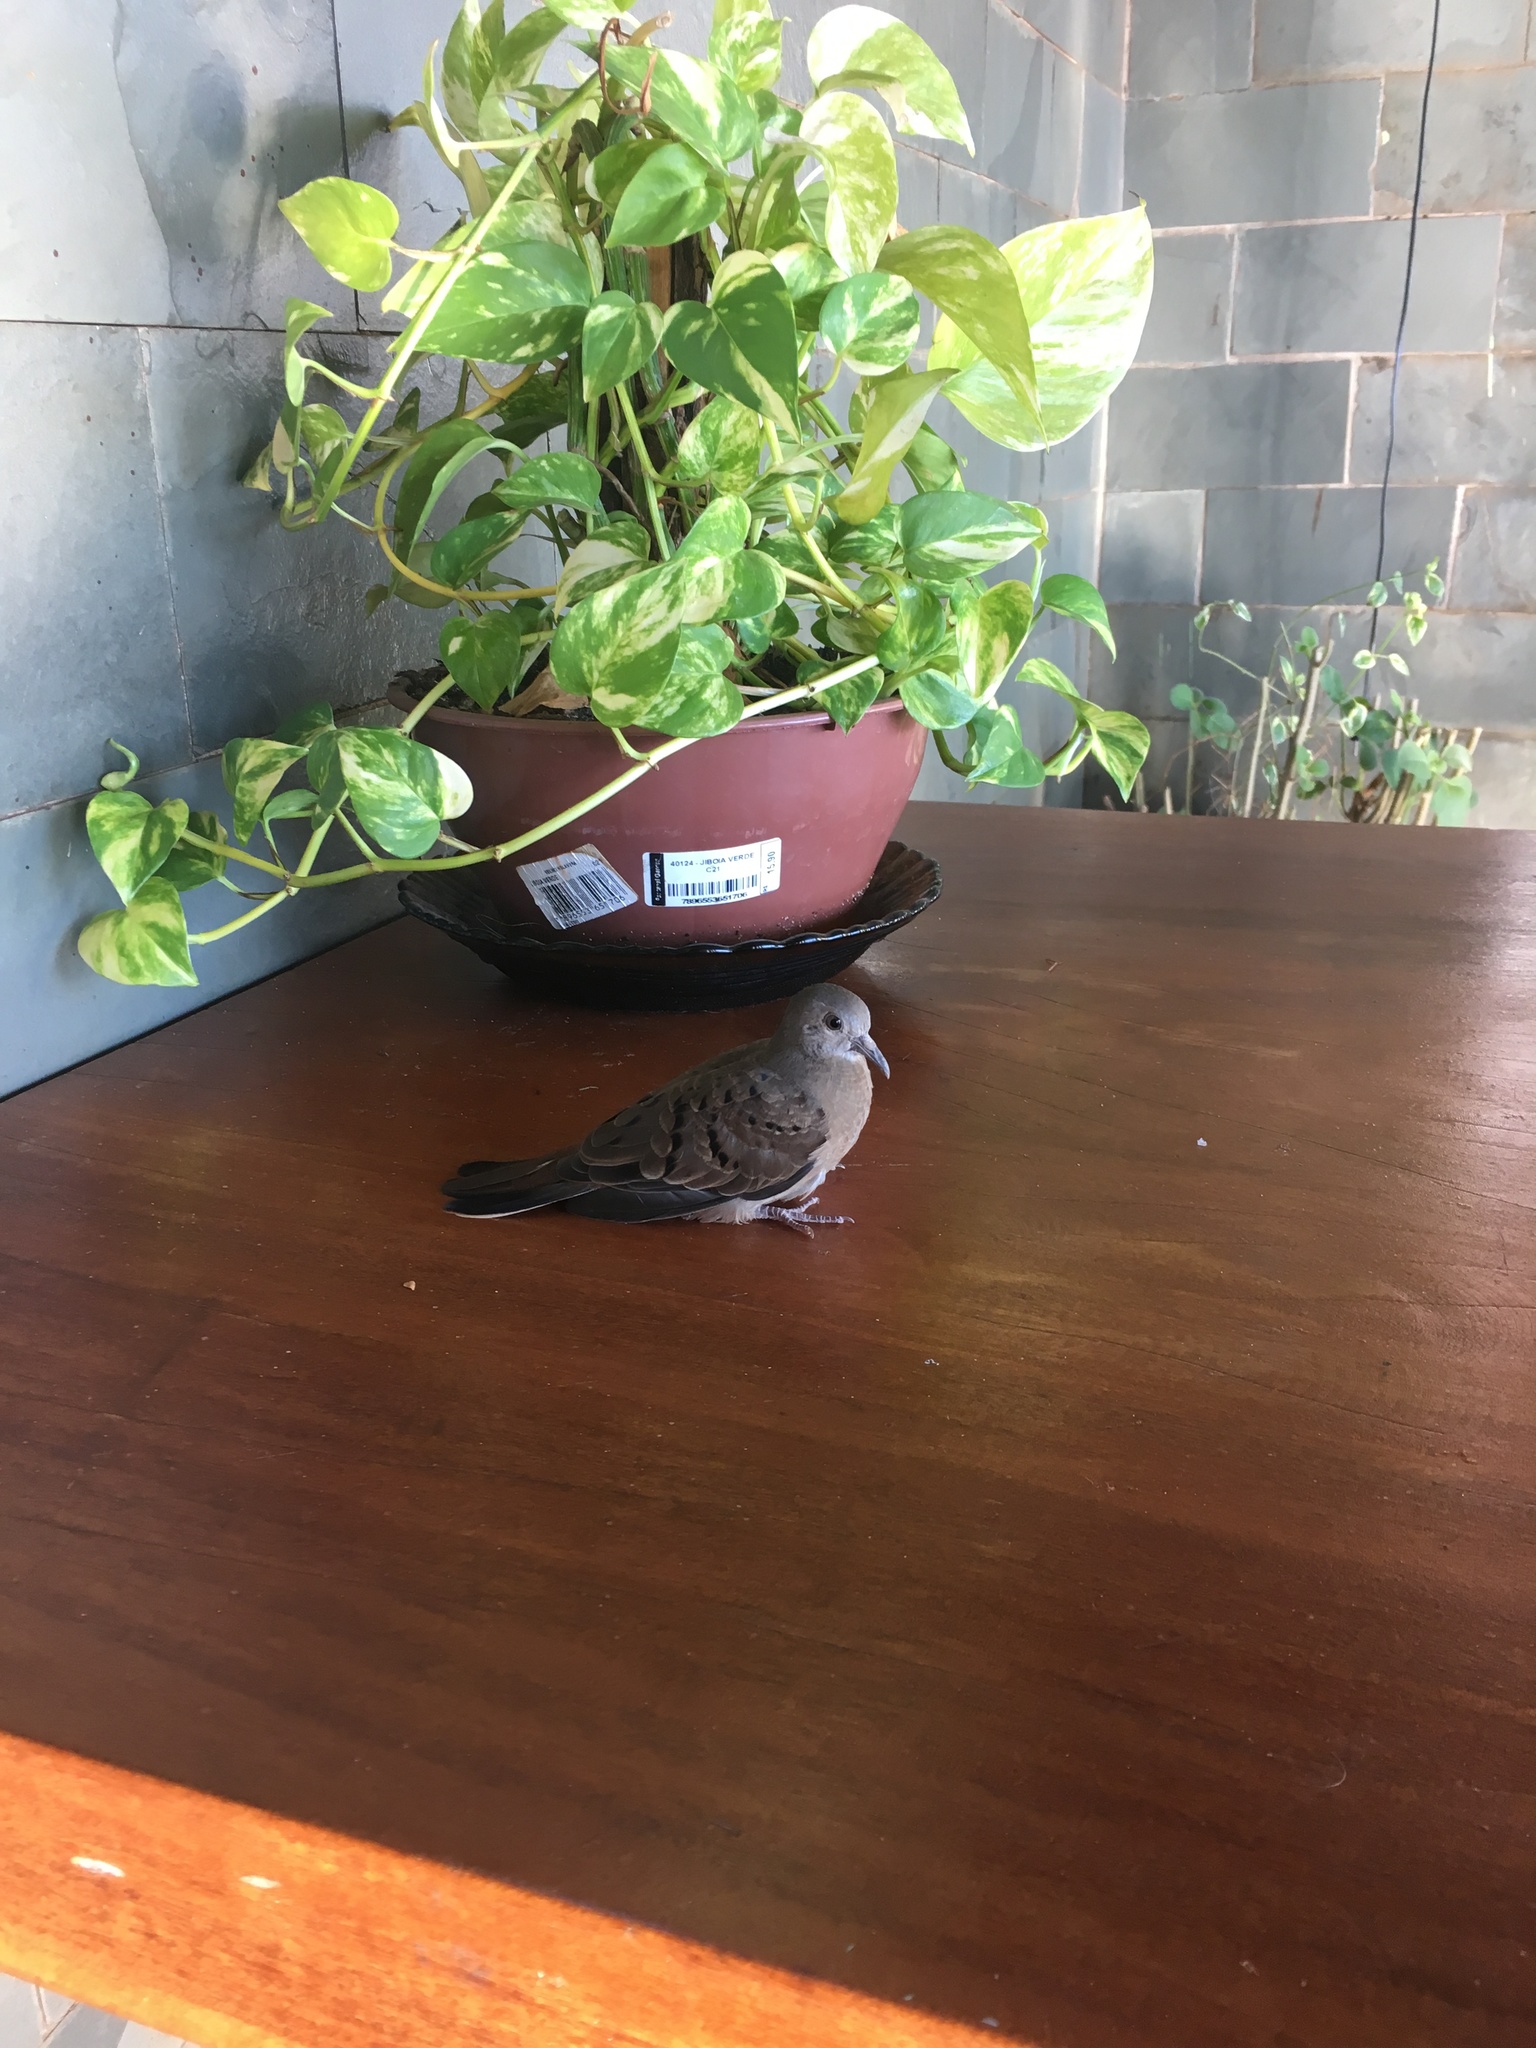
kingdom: Animalia
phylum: Chordata
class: Aves
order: Columbiformes
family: Columbidae
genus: Columbina
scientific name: Columbina talpacoti
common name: Ruddy ground dove
